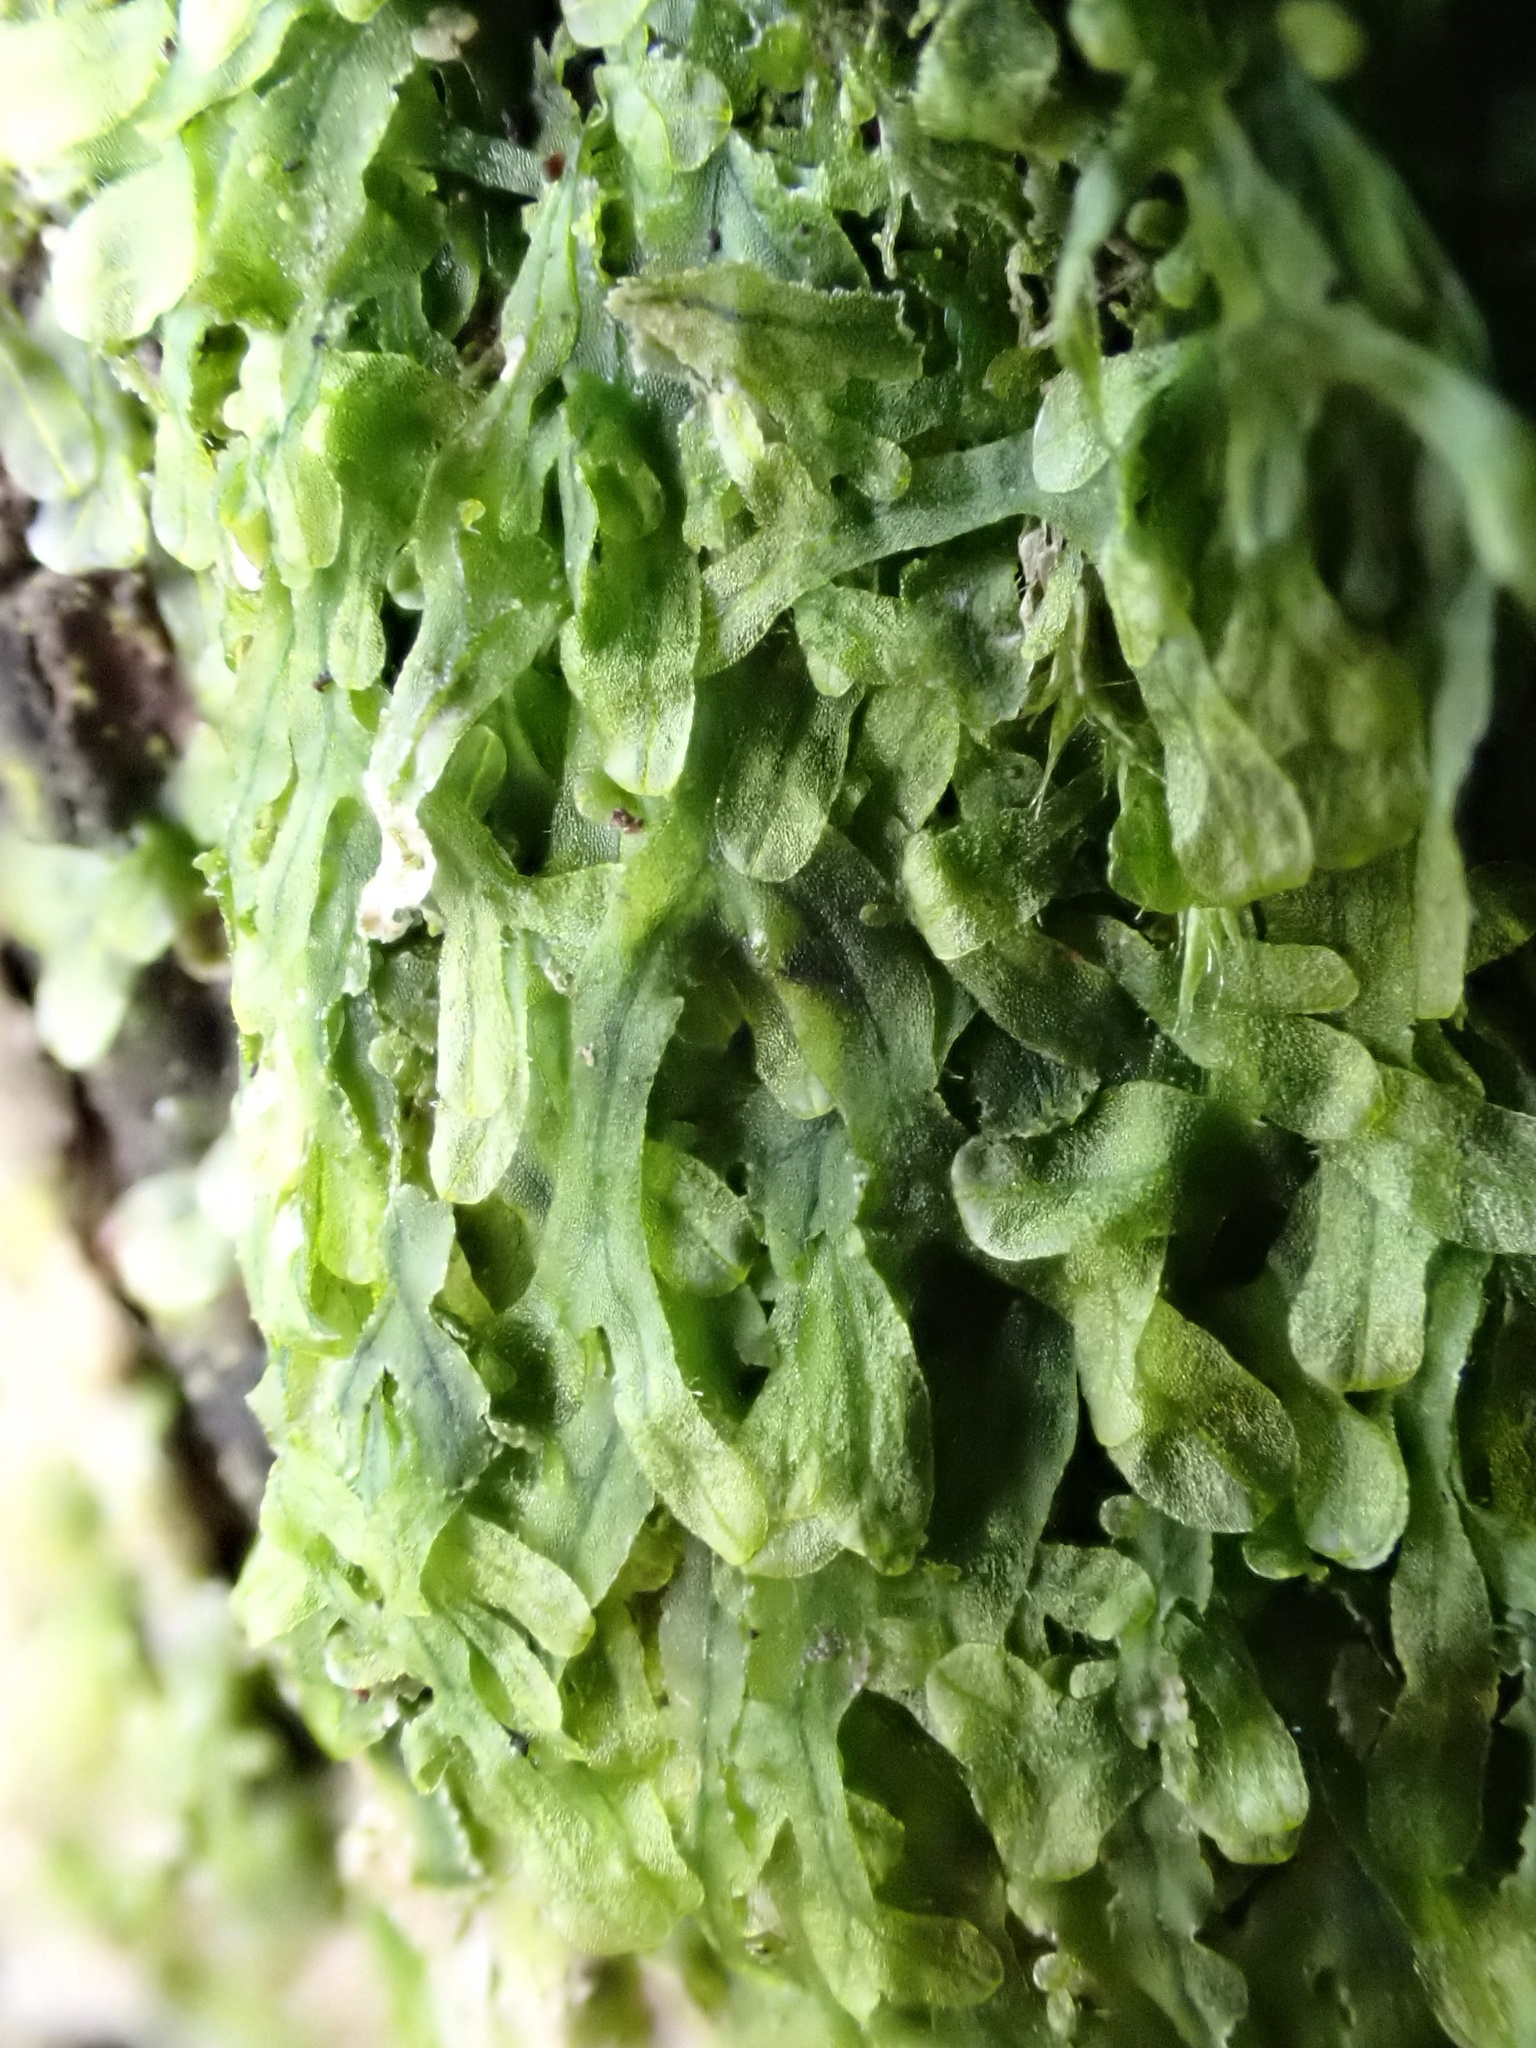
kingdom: Plantae
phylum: Marchantiophyta
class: Jungermanniopsida
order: Metzgeriales
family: Metzgeriaceae
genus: Metzgeria
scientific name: Metzgeria furcata
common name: Forked veilwort
